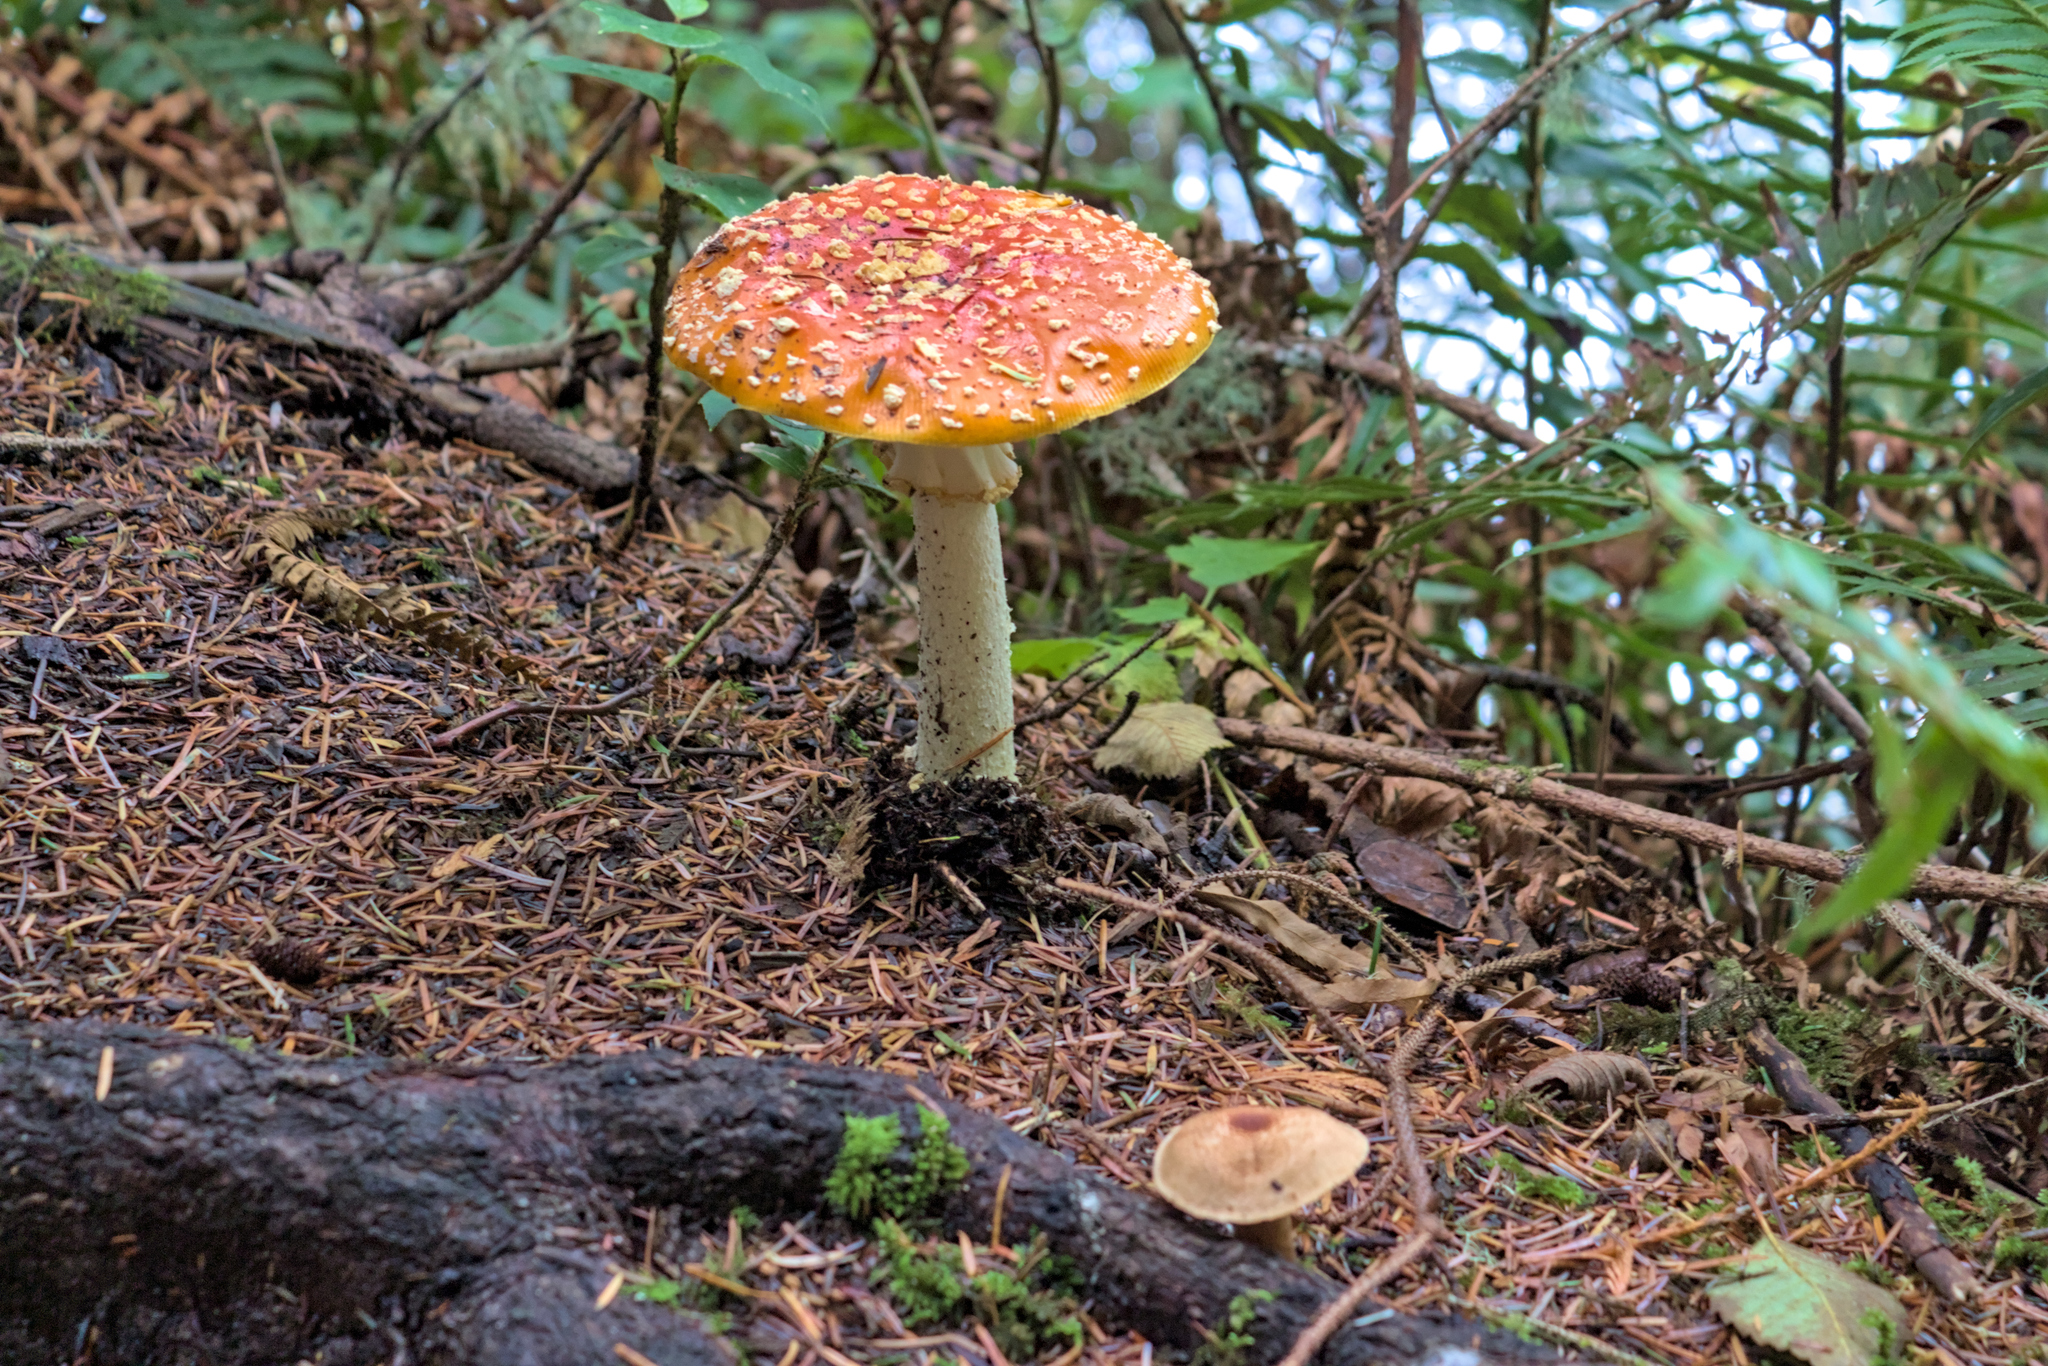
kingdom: Fungi
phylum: Basidiomycota
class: Agaricomycetes
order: Agaricales
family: Amanitaceae
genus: Amanita
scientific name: Amanita muscaria
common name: Fly agaric
